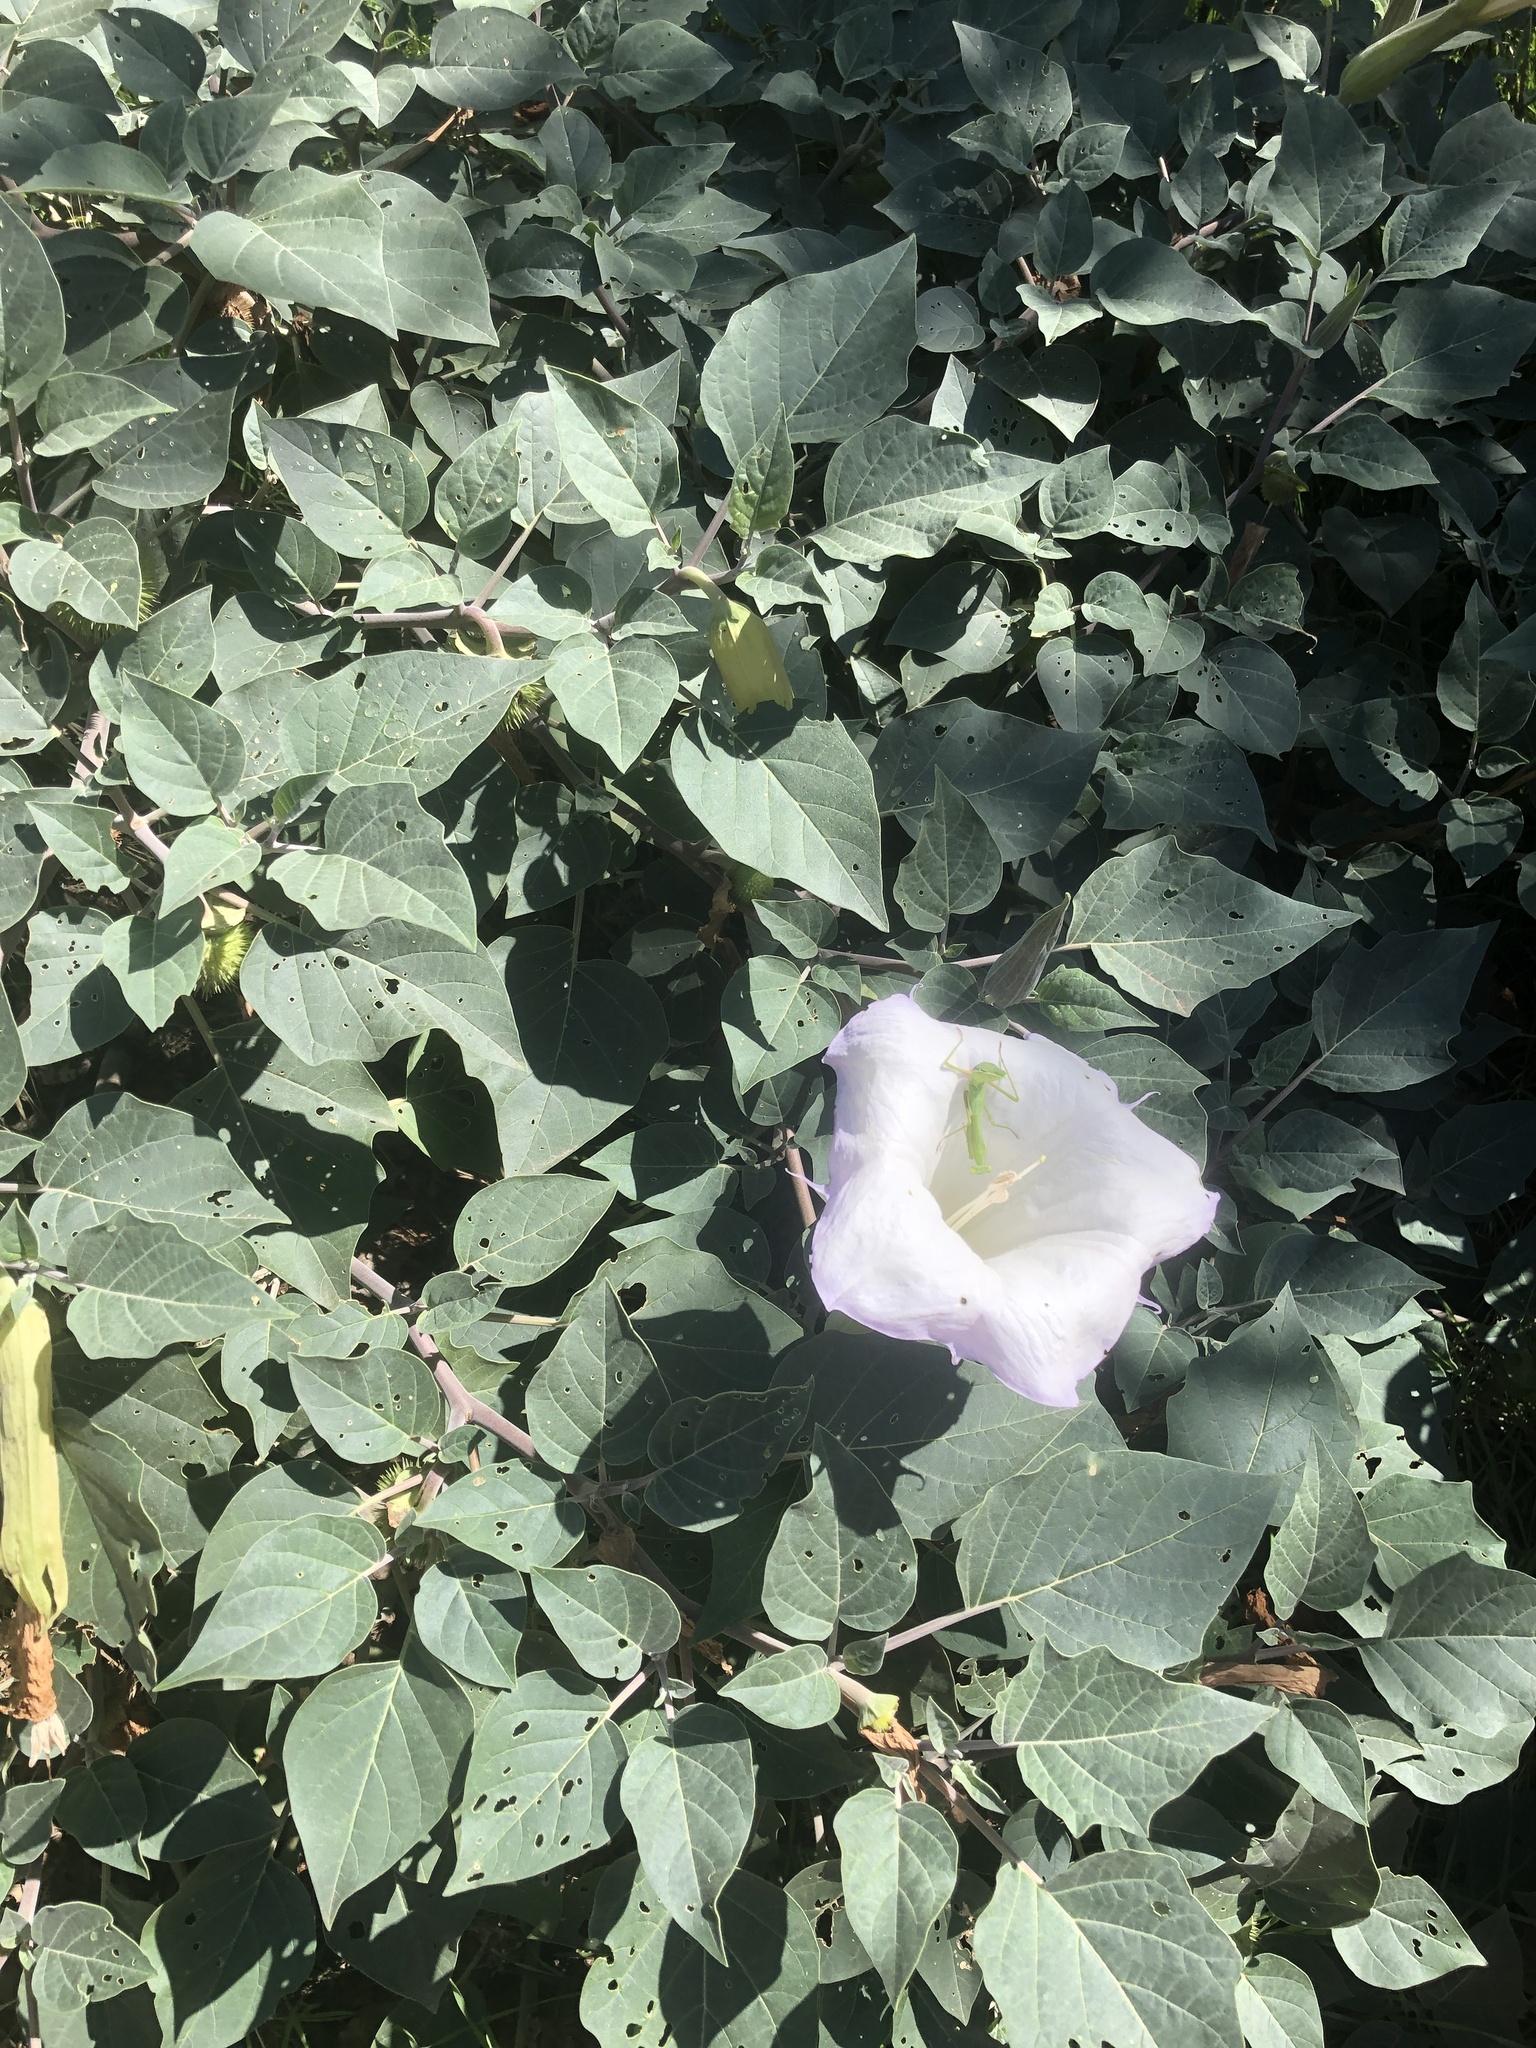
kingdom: Plantae
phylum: Tracheophyta
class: Magnoliopsida
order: Solanales
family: Solanaceae
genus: Datura
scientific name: Datura wrightii
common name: Sacred thorn-apple
